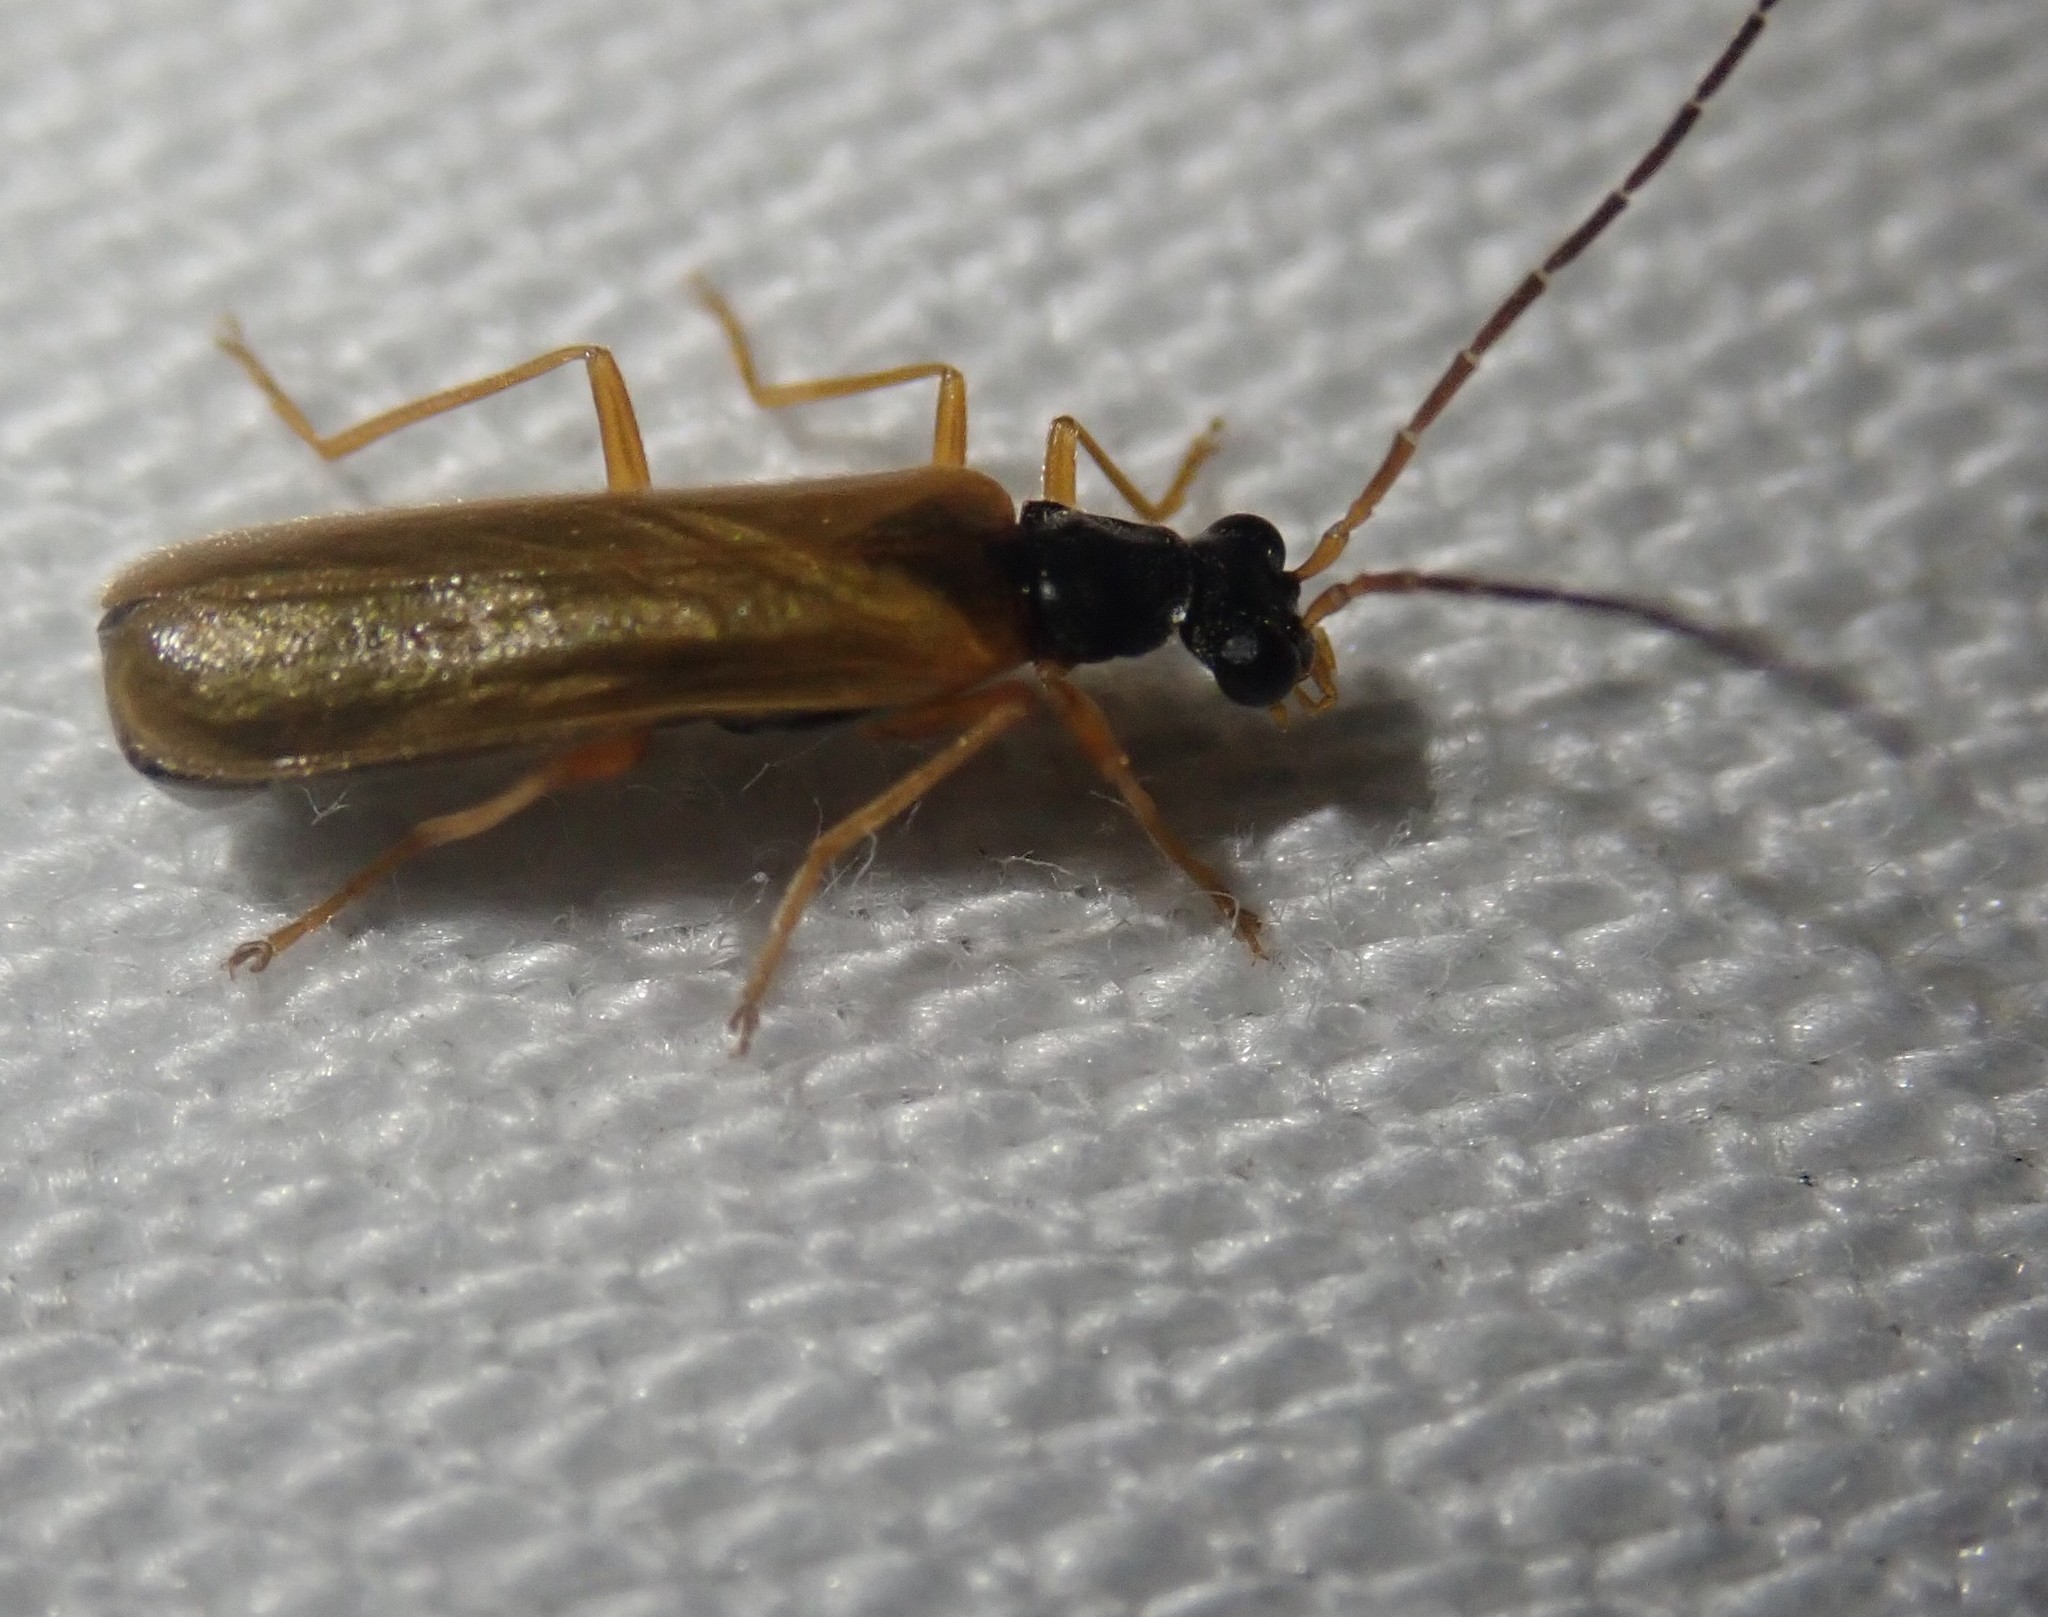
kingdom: Animalia
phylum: Arthropoda
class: Insecta
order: Coleoptera
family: Cantharidae
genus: Rhagonycha
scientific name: Rhagonycha lignosa
